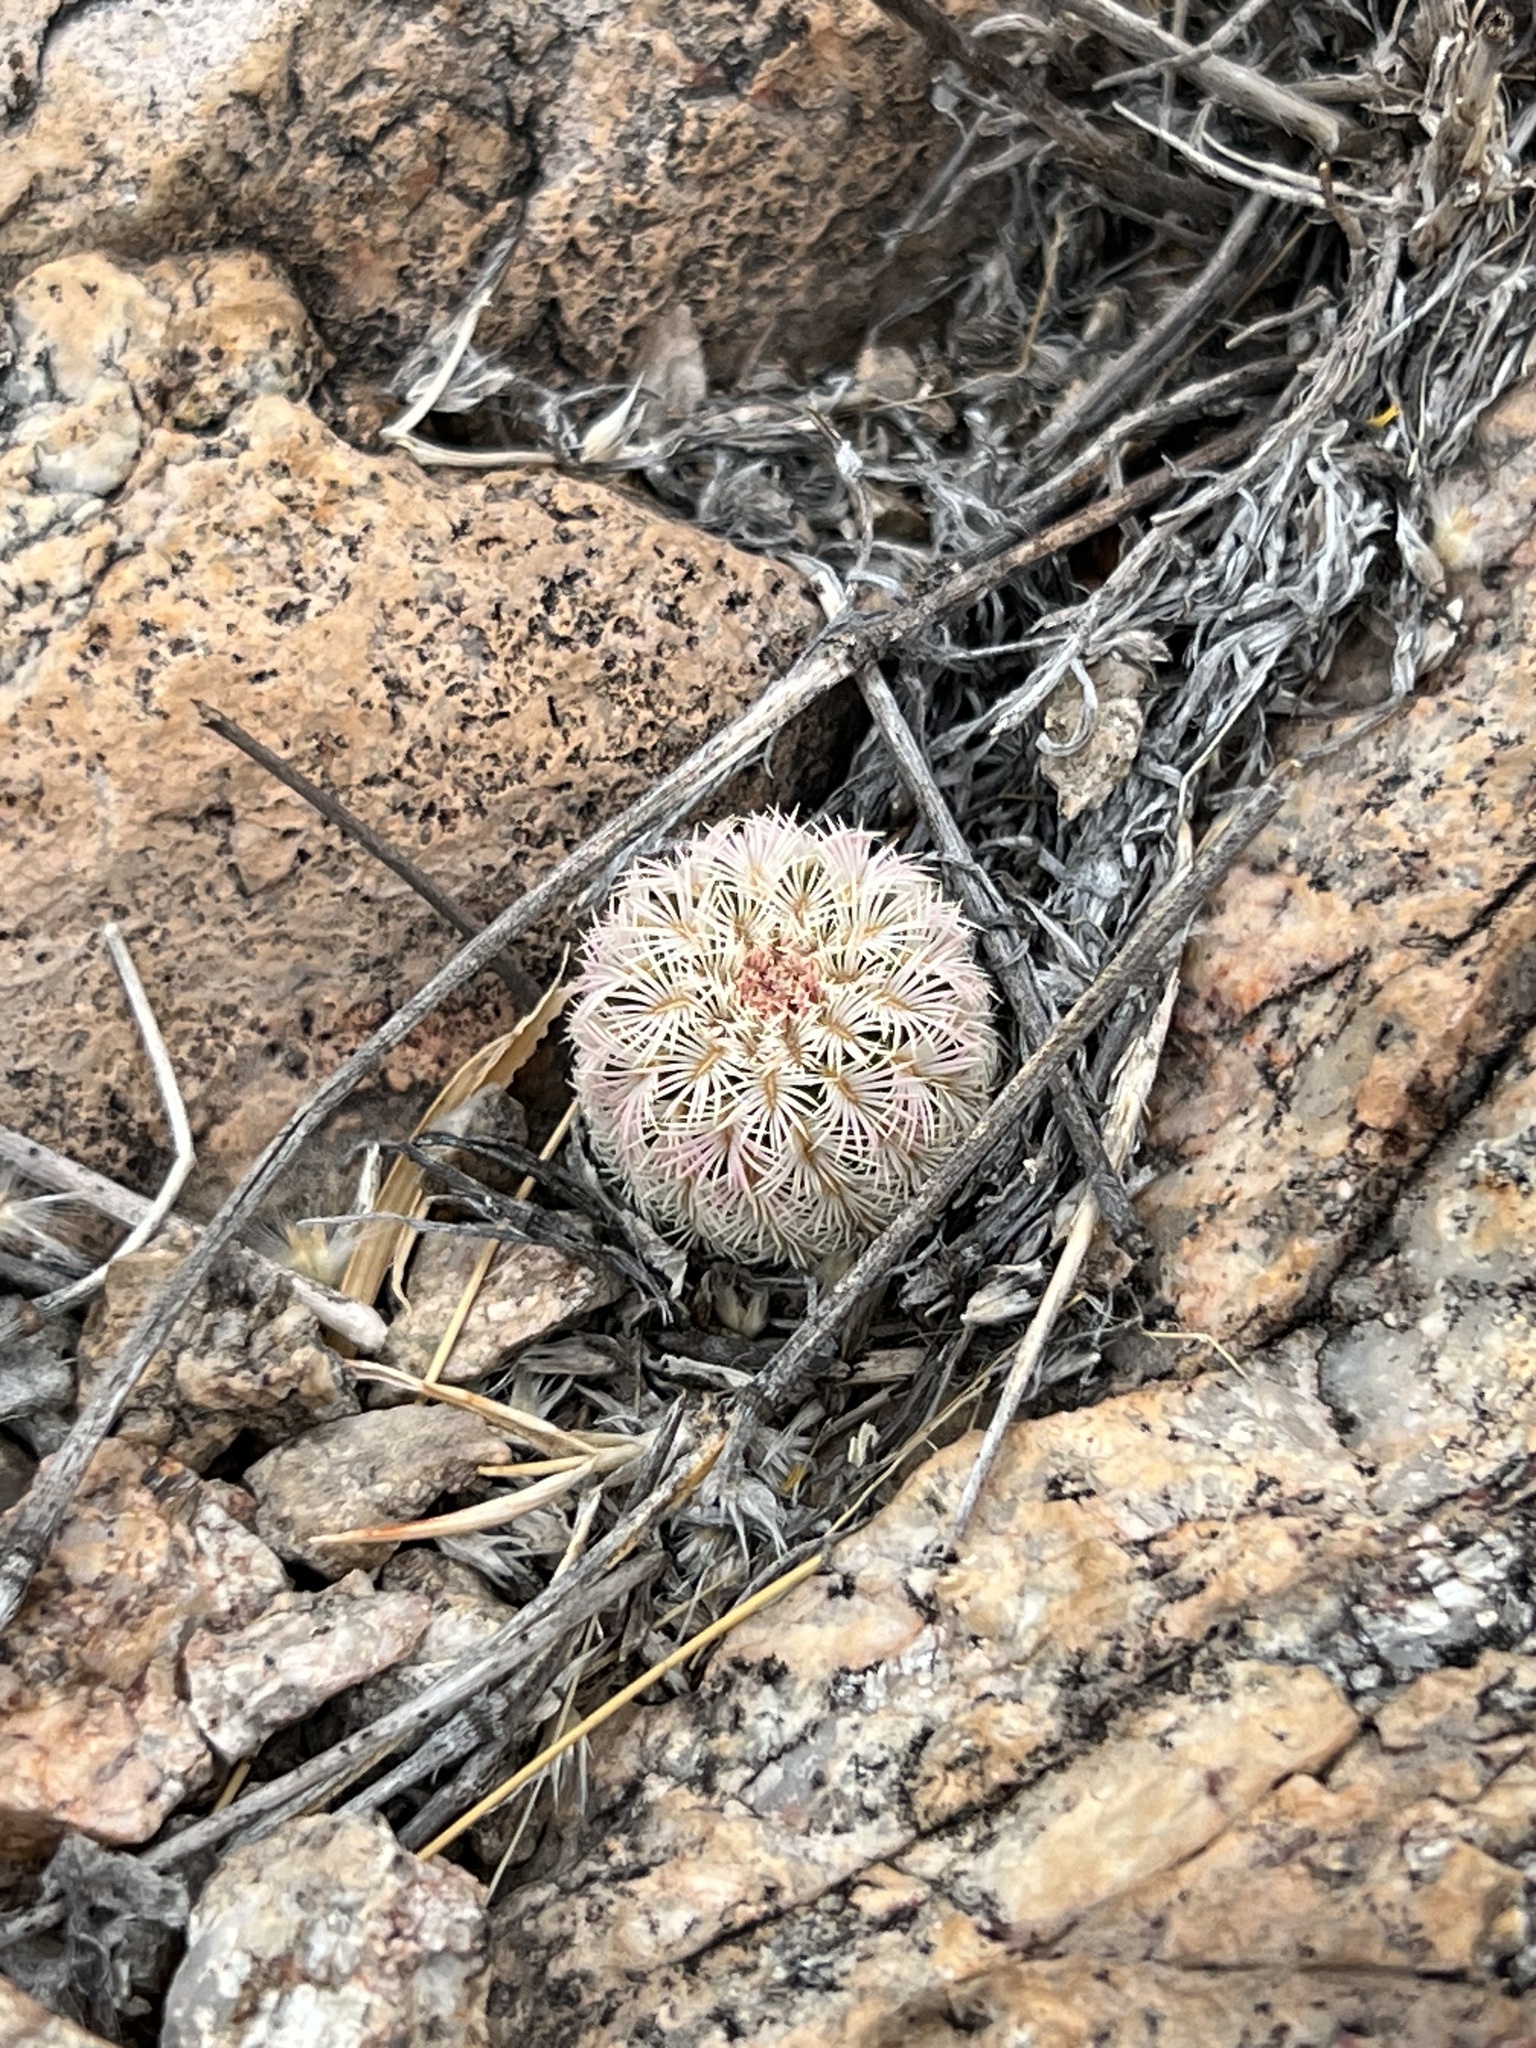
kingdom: Plantae
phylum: Tracheophyta
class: Magnoliopsida
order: Caryophyllales
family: Cactaceae
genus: Echinocereus
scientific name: Echinocereus rigidissimus
